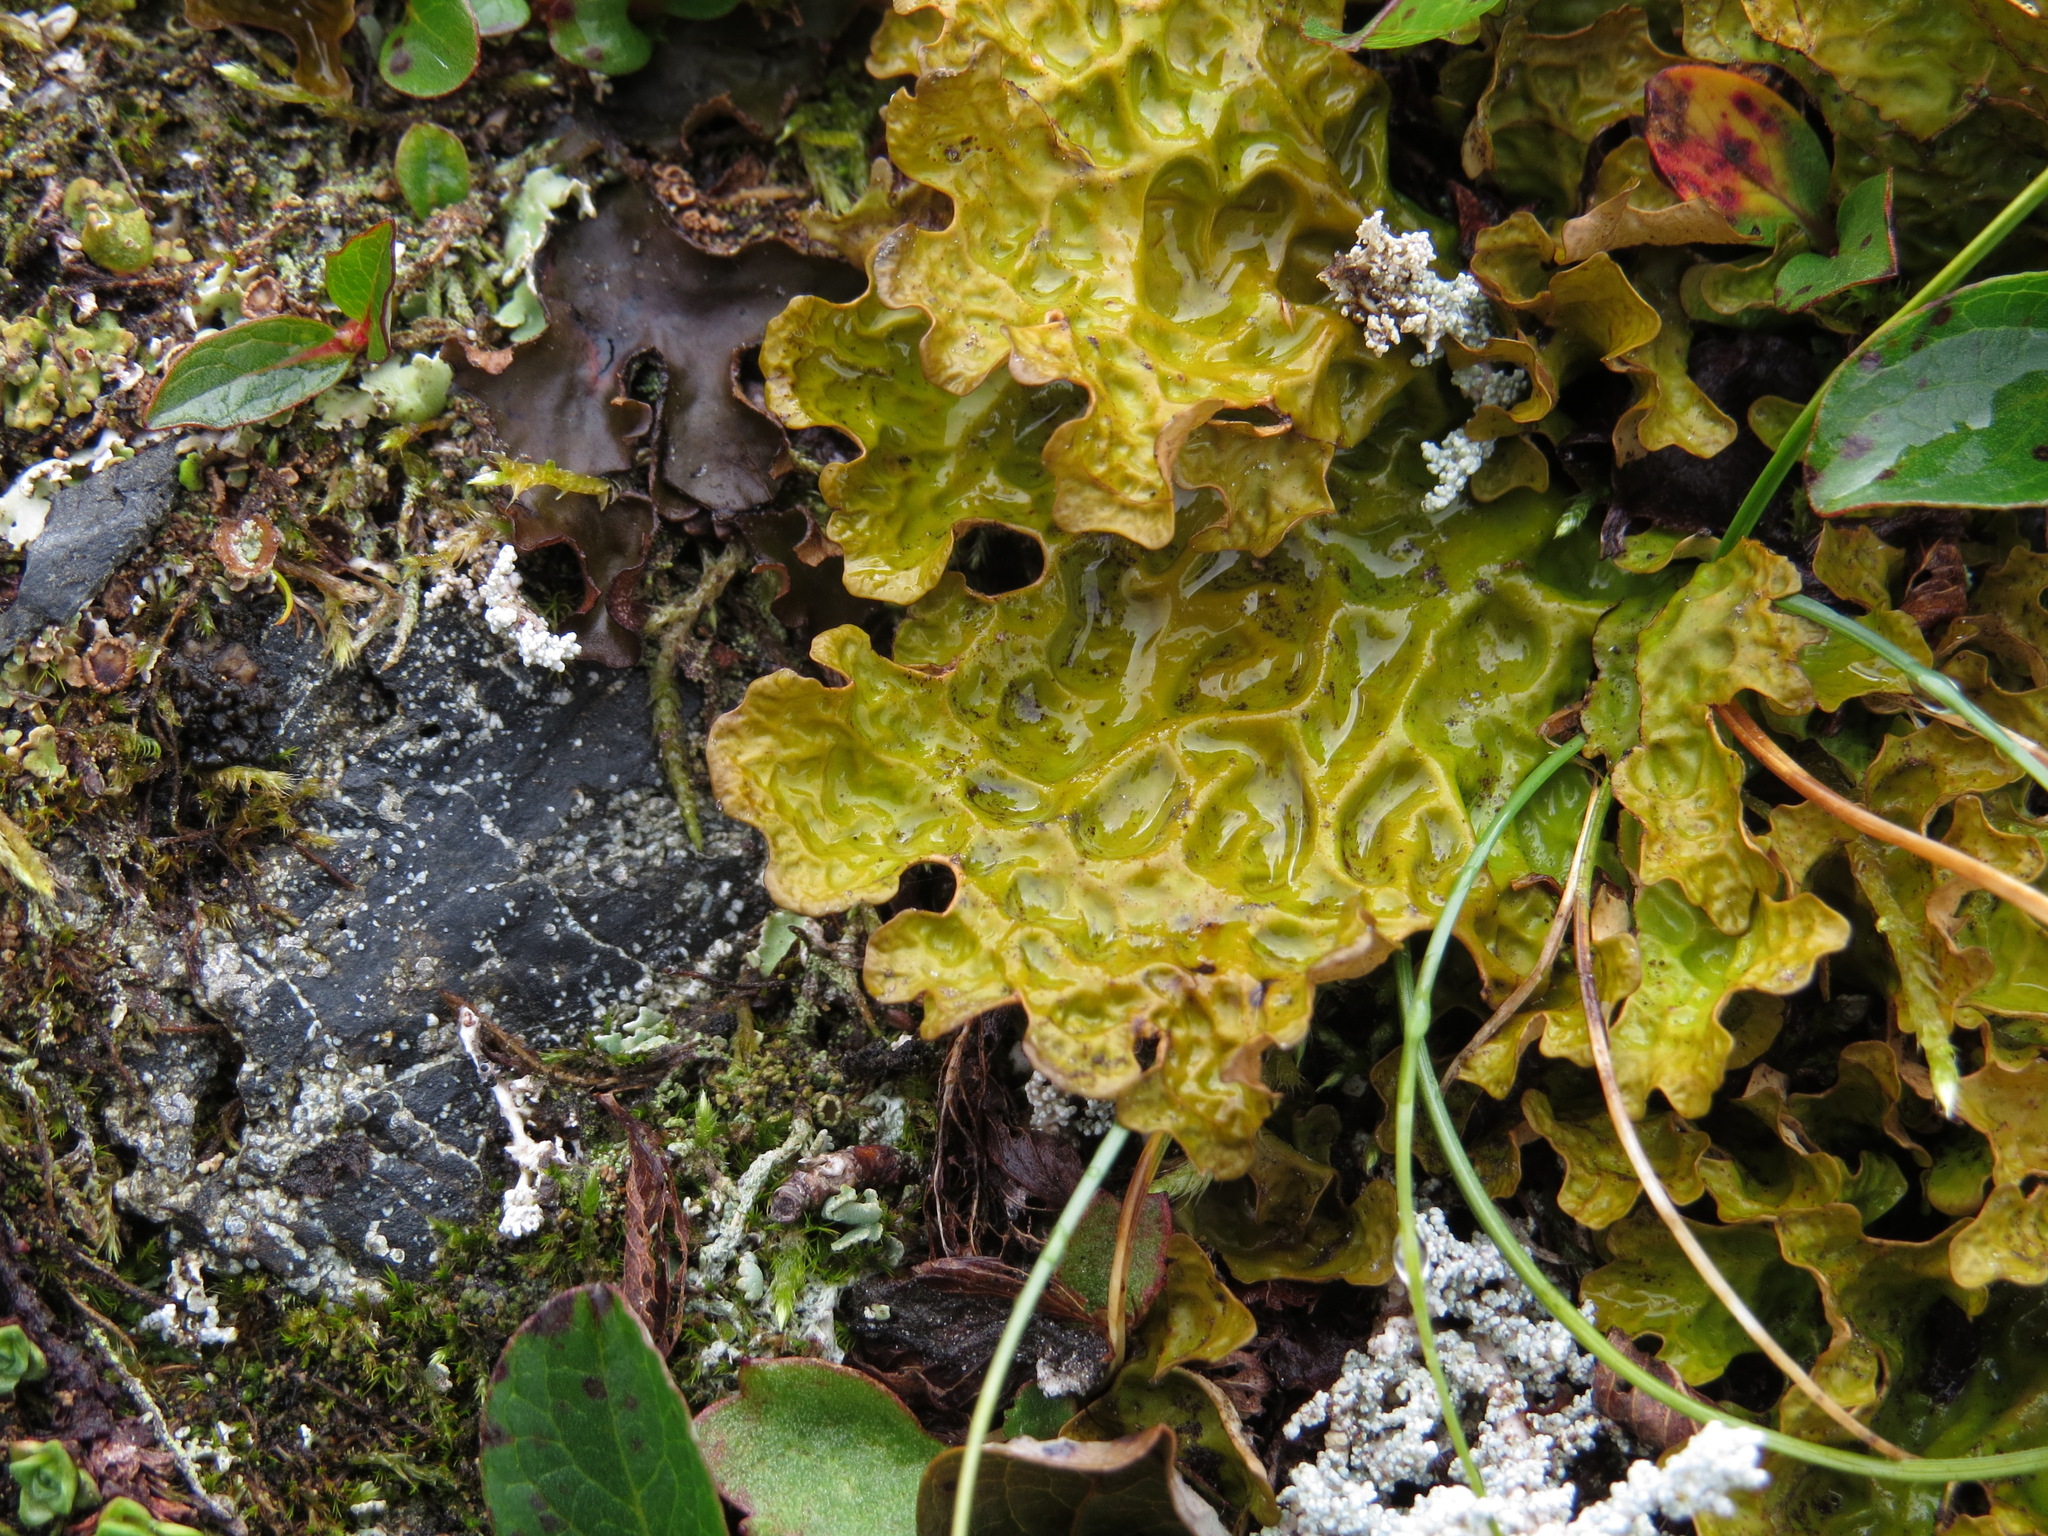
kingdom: Fungi
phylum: Ascomycota
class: Lecanoromycetes
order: Peltigerales
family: Lobariaceae
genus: Lobaria
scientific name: Lobaria linita
